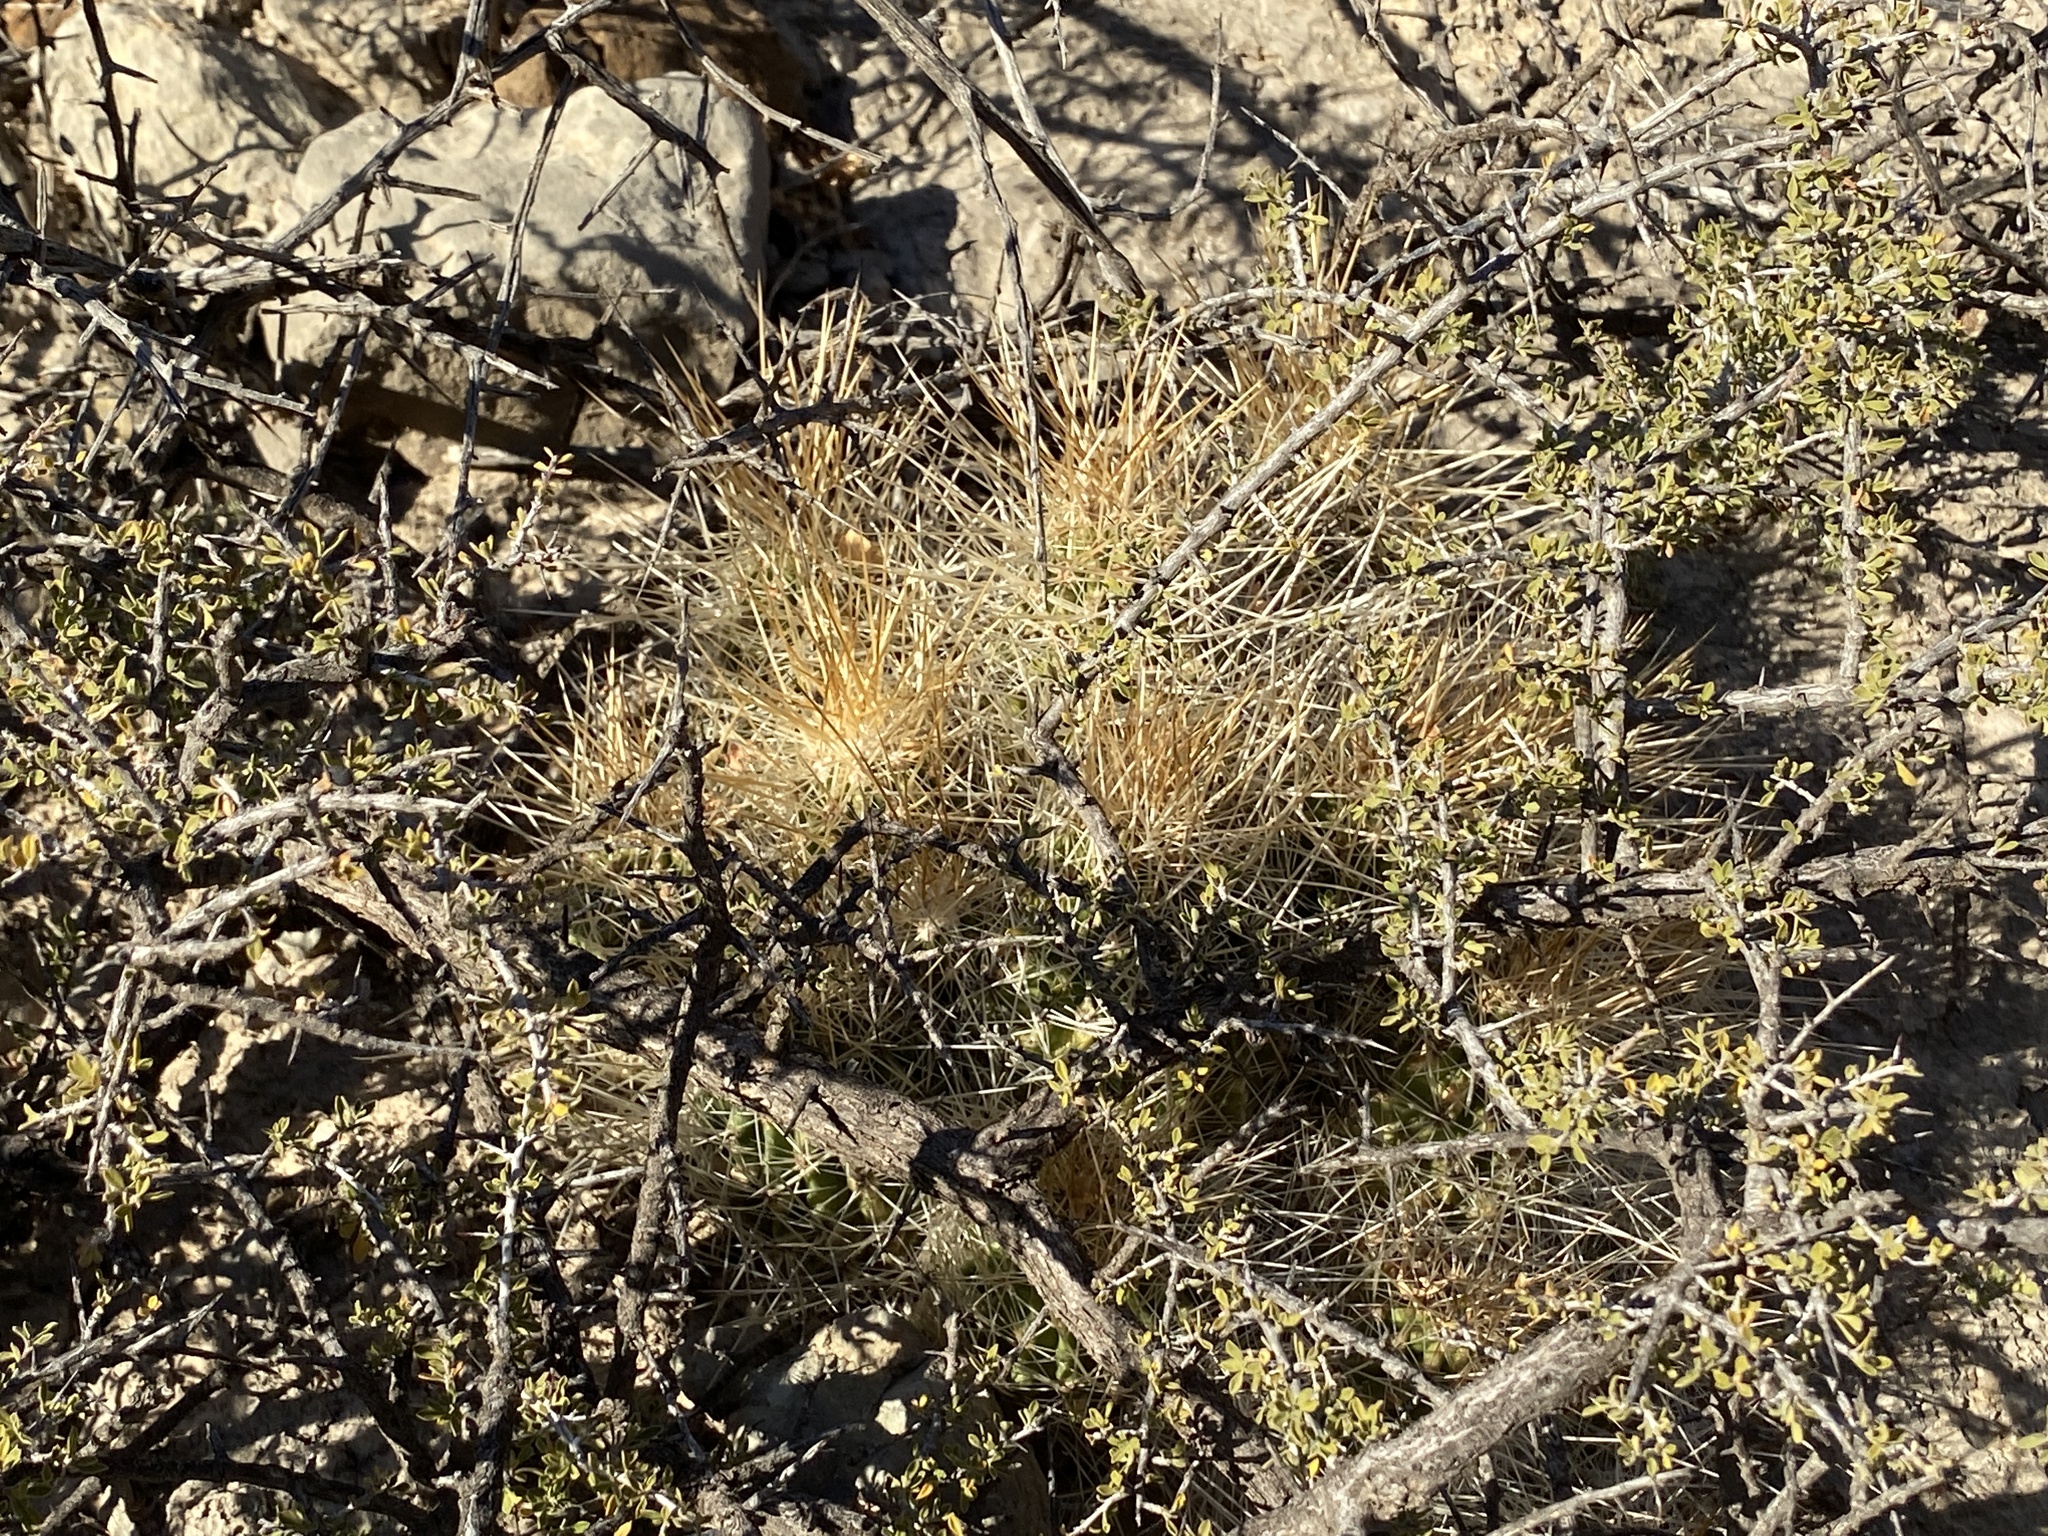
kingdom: Plantae
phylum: Tracheophyta
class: Magnoliopsida
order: Caryophyllales
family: Cactaceae
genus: Echinocereus
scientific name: Echinocereus stramineus
